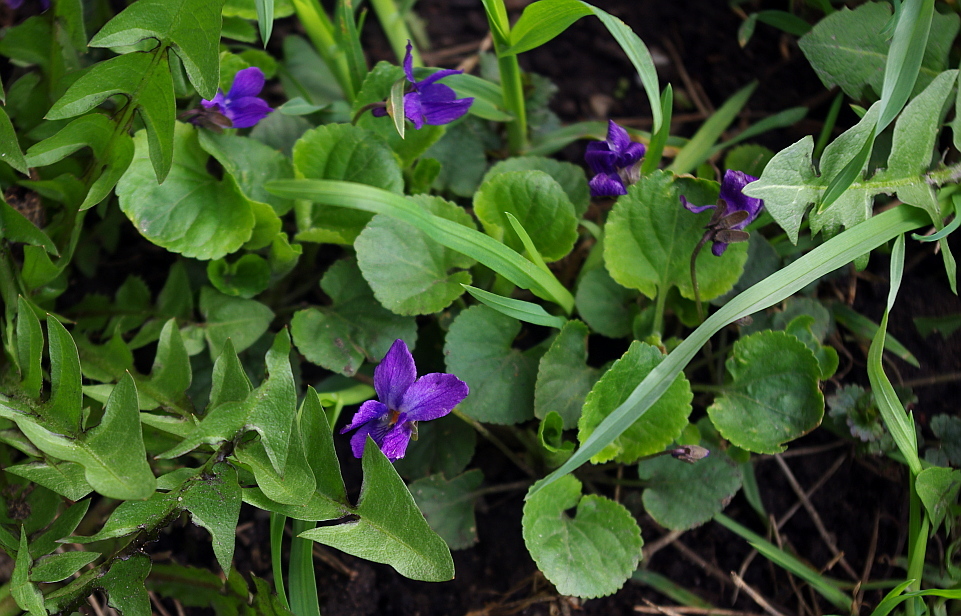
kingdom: Plantae
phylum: Tracheophyta
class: Magnoliopsida
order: Malpighiales
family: Violaceae
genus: Viola
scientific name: Viola odorata
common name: Sweet violet
